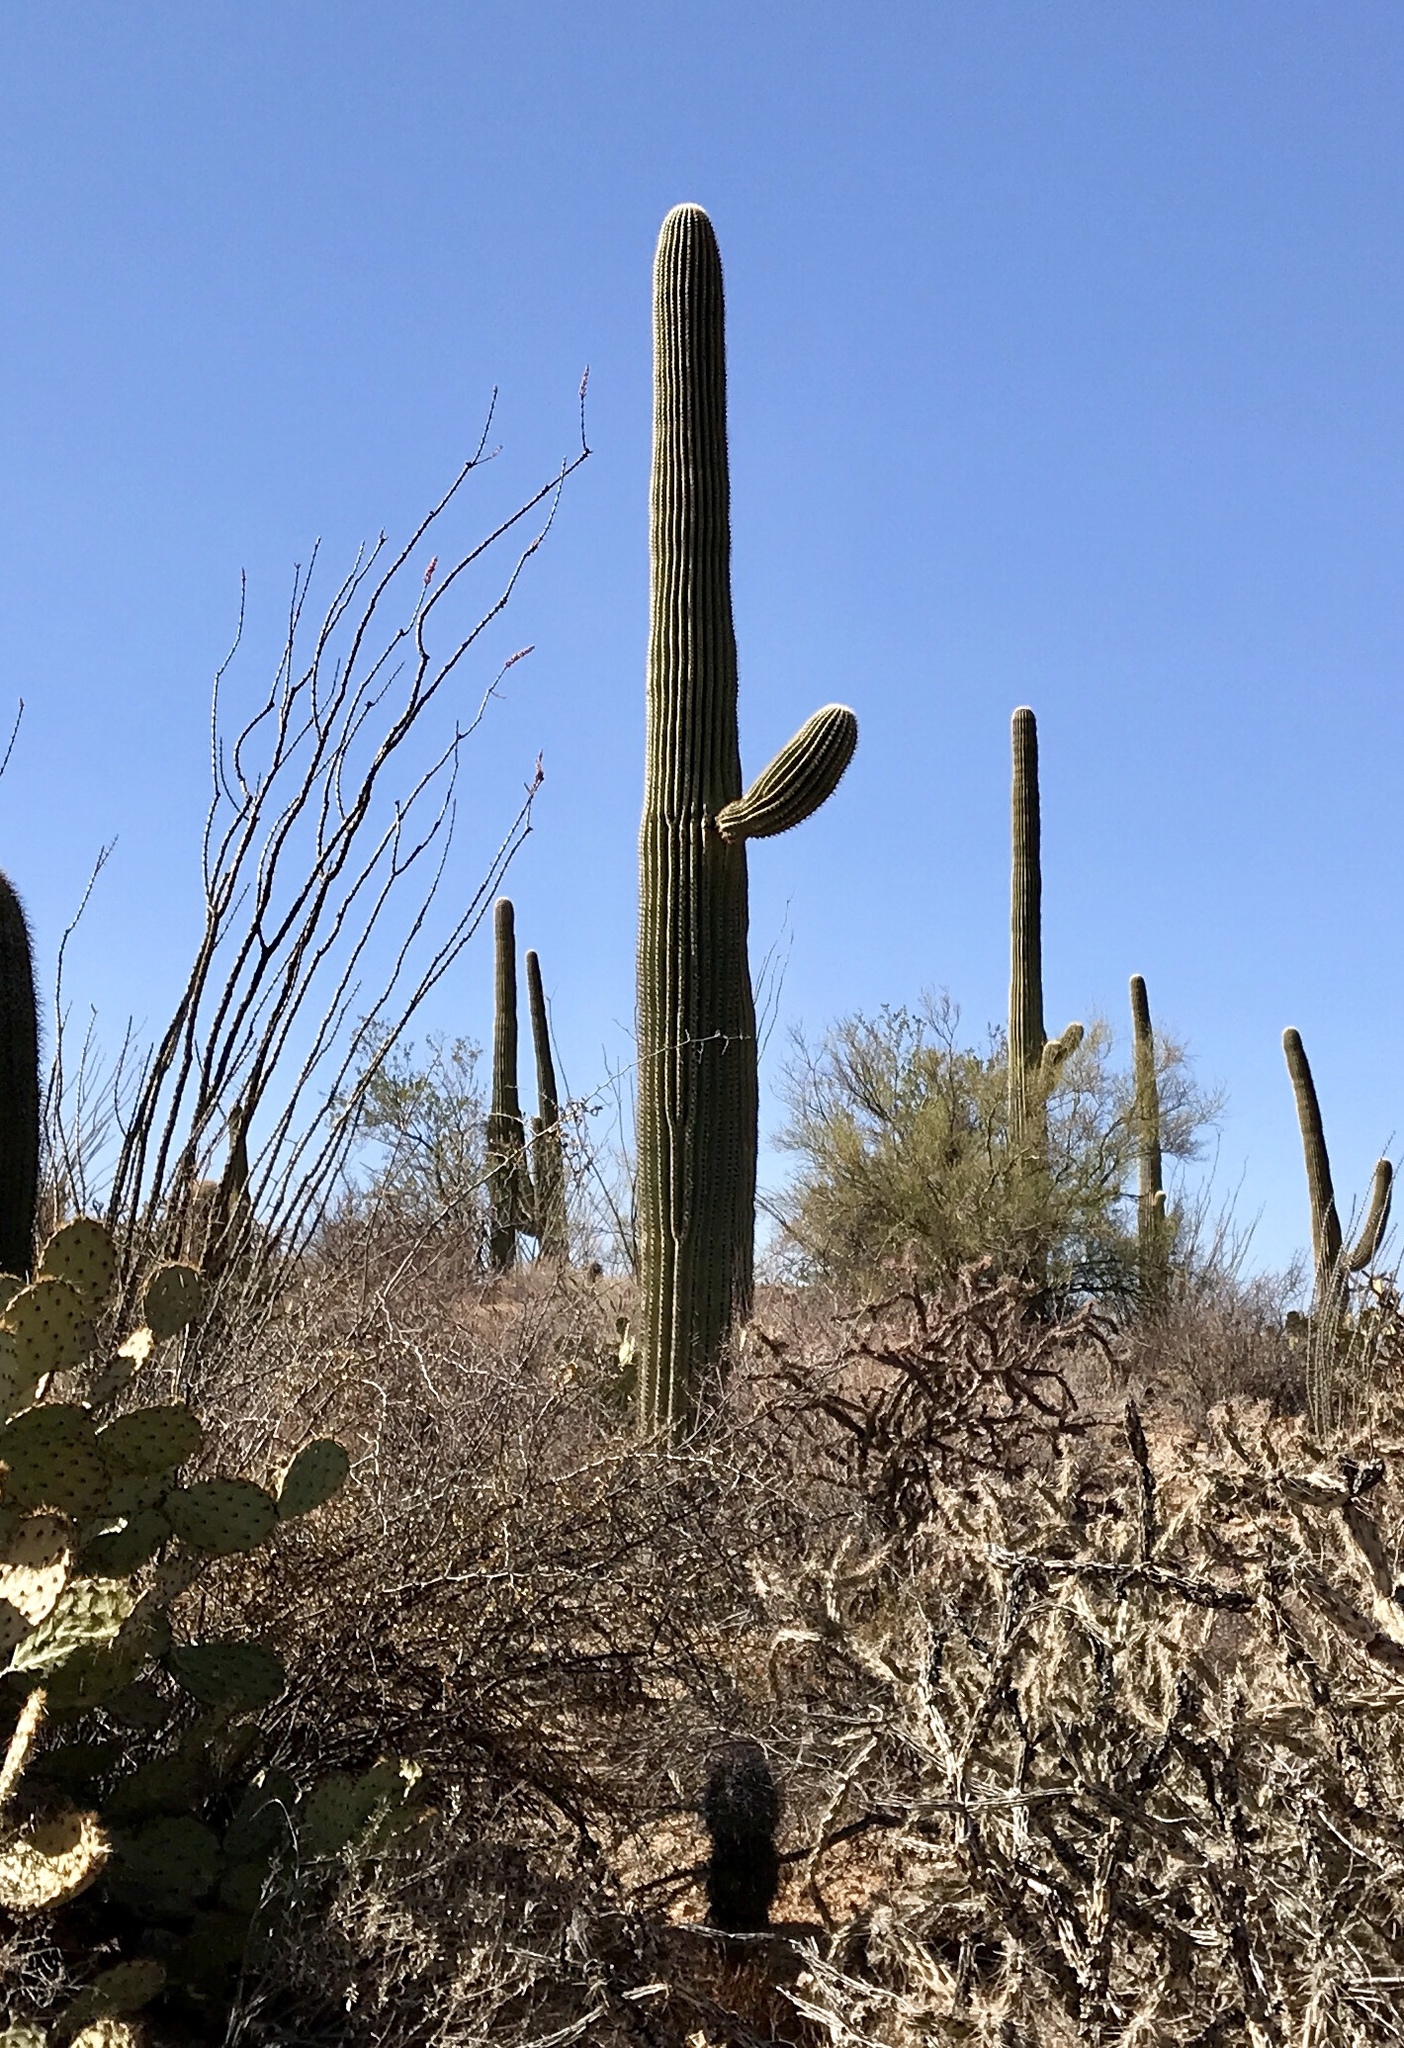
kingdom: Plantae
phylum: Tracheophyta
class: Magnoliopsida
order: Caryophyllales
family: Cactaceae
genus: Carnegiea
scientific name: Carnegiea gigantea
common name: Saguaro
